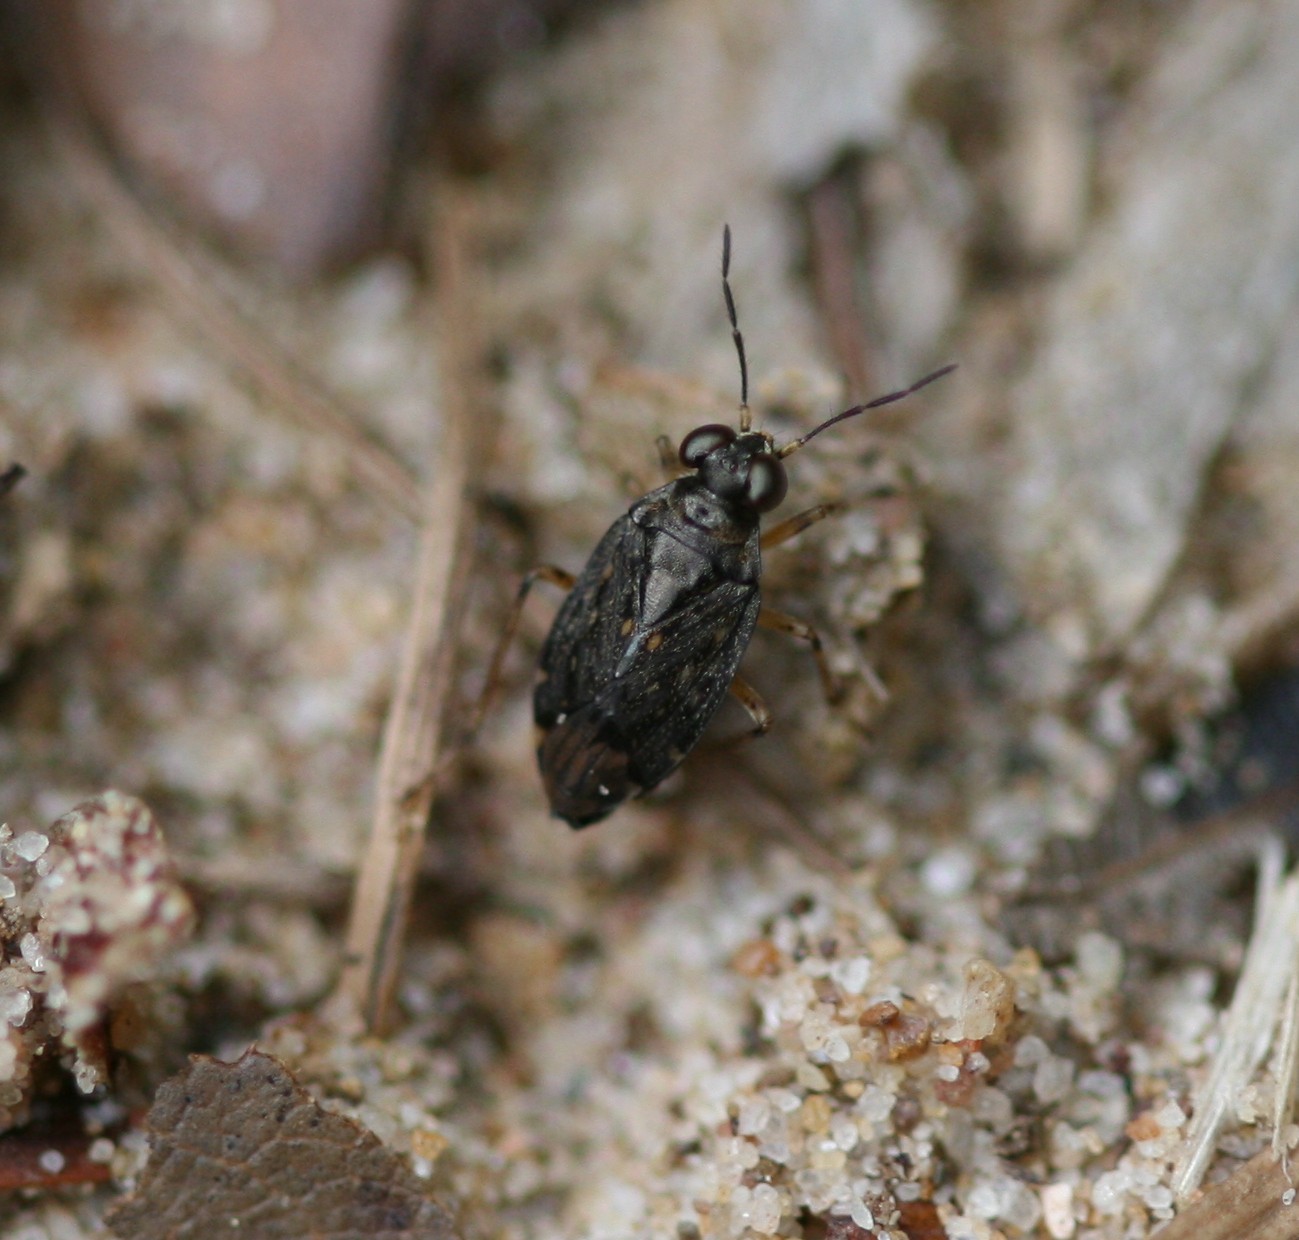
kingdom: Animalia
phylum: Arthropoda
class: Insecta
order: Hemiptera
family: Saldidae
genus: Saldula
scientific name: Saldula orthochila
